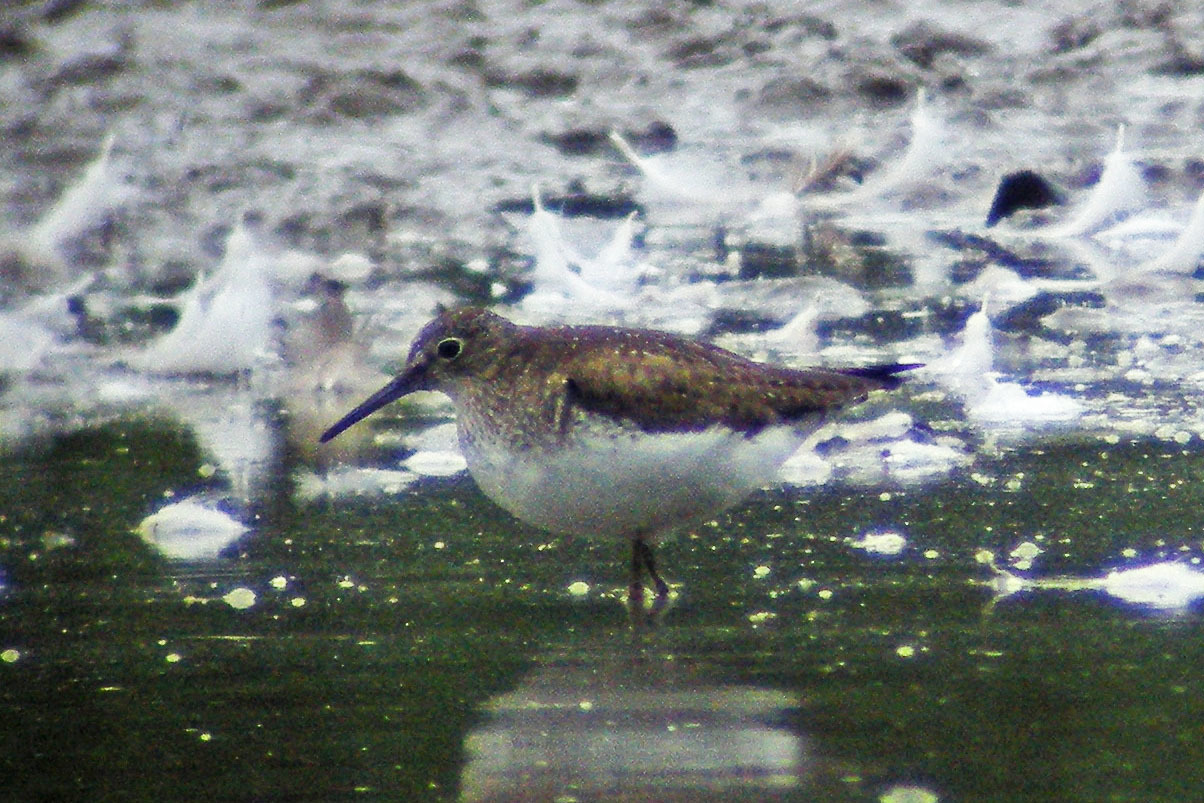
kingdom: Animalia
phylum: Chordata
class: Aves
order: Charadriiformes
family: Scolopacidae
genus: Tringa
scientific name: Tringa solitaria
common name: Solitary sandpiper
